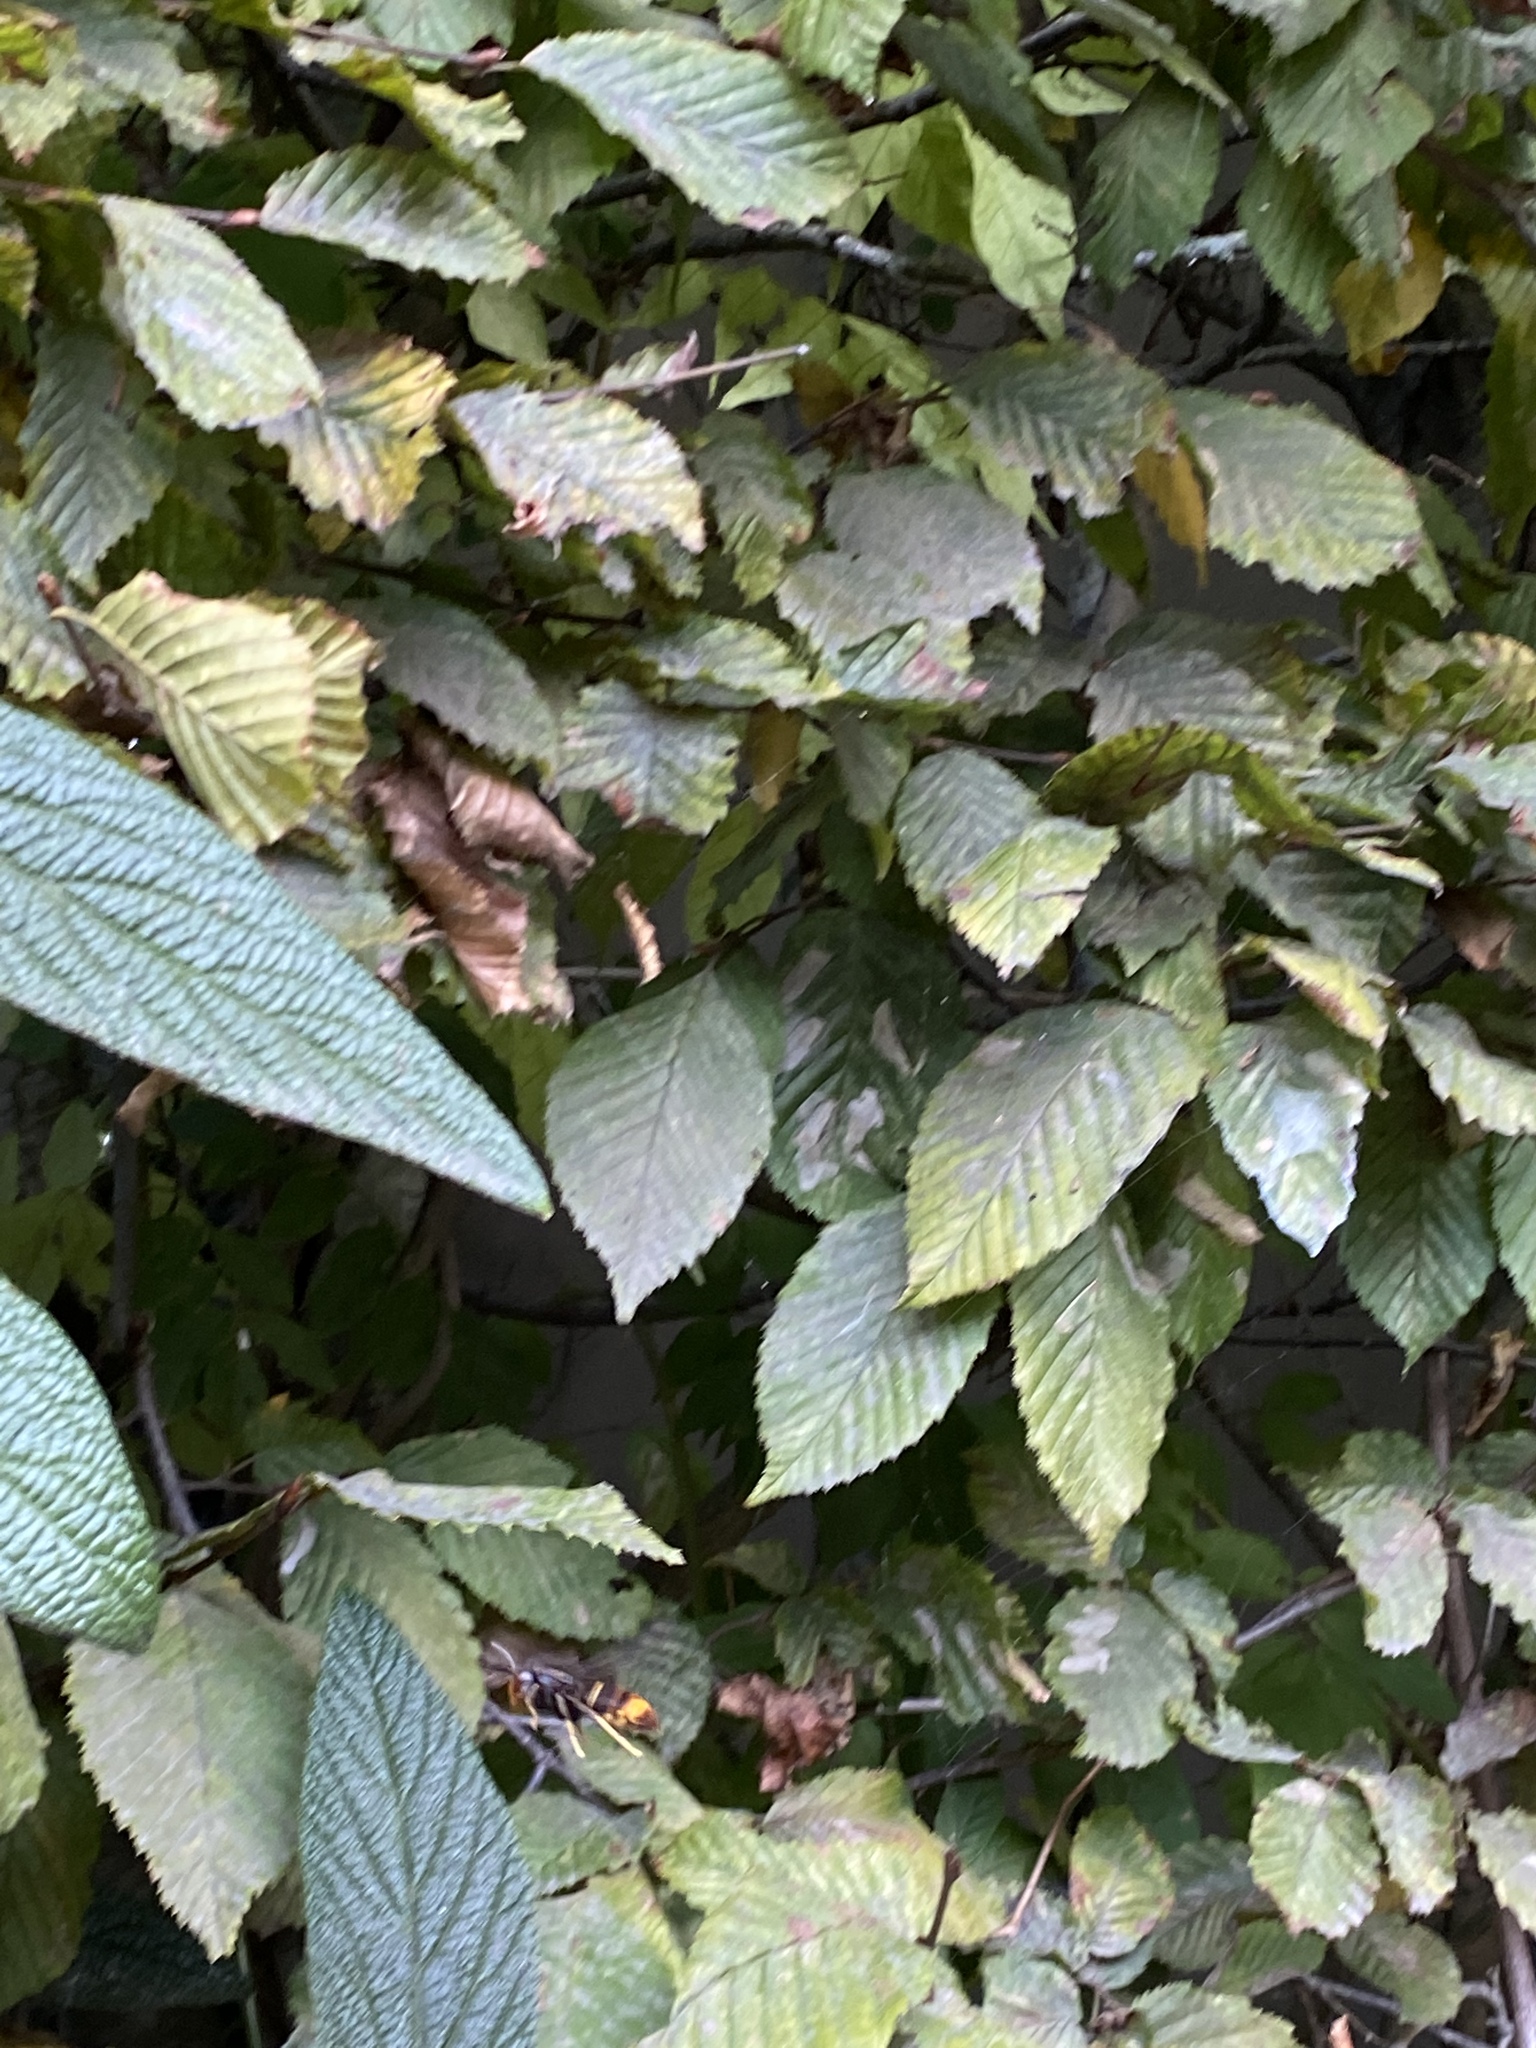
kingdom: Animalia
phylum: Arthropoda
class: Insecta
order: Hymenoptera
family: Vespidae
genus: Vespa
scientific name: Vespa velutina
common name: Asian hornet
